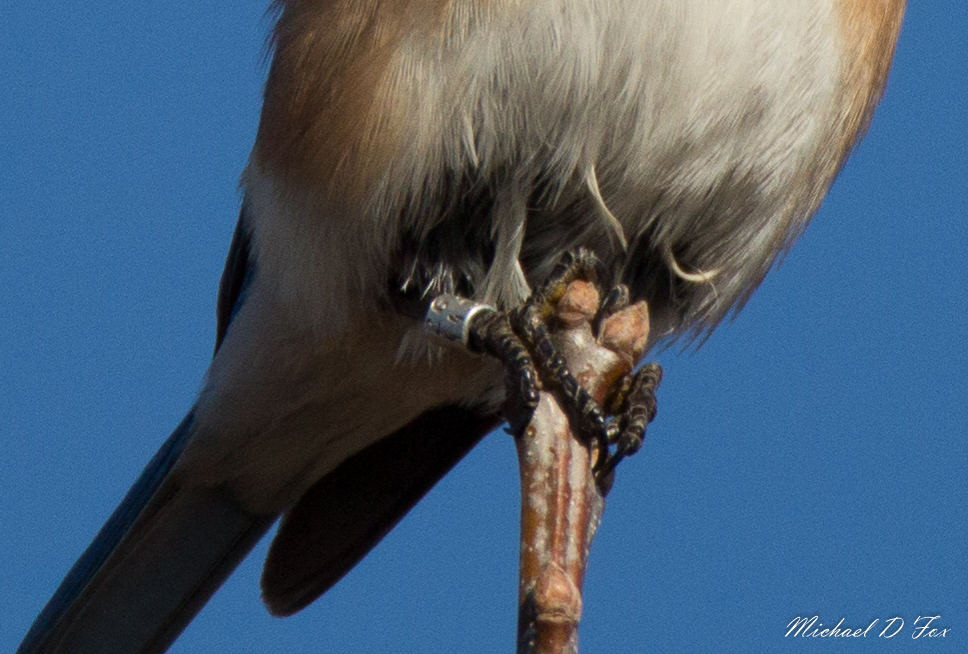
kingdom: Animalia
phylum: Chordata
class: Aves
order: Passeriformes
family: Turdidae
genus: Sialia
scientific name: Sialia sialis
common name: Eastern bluebird
